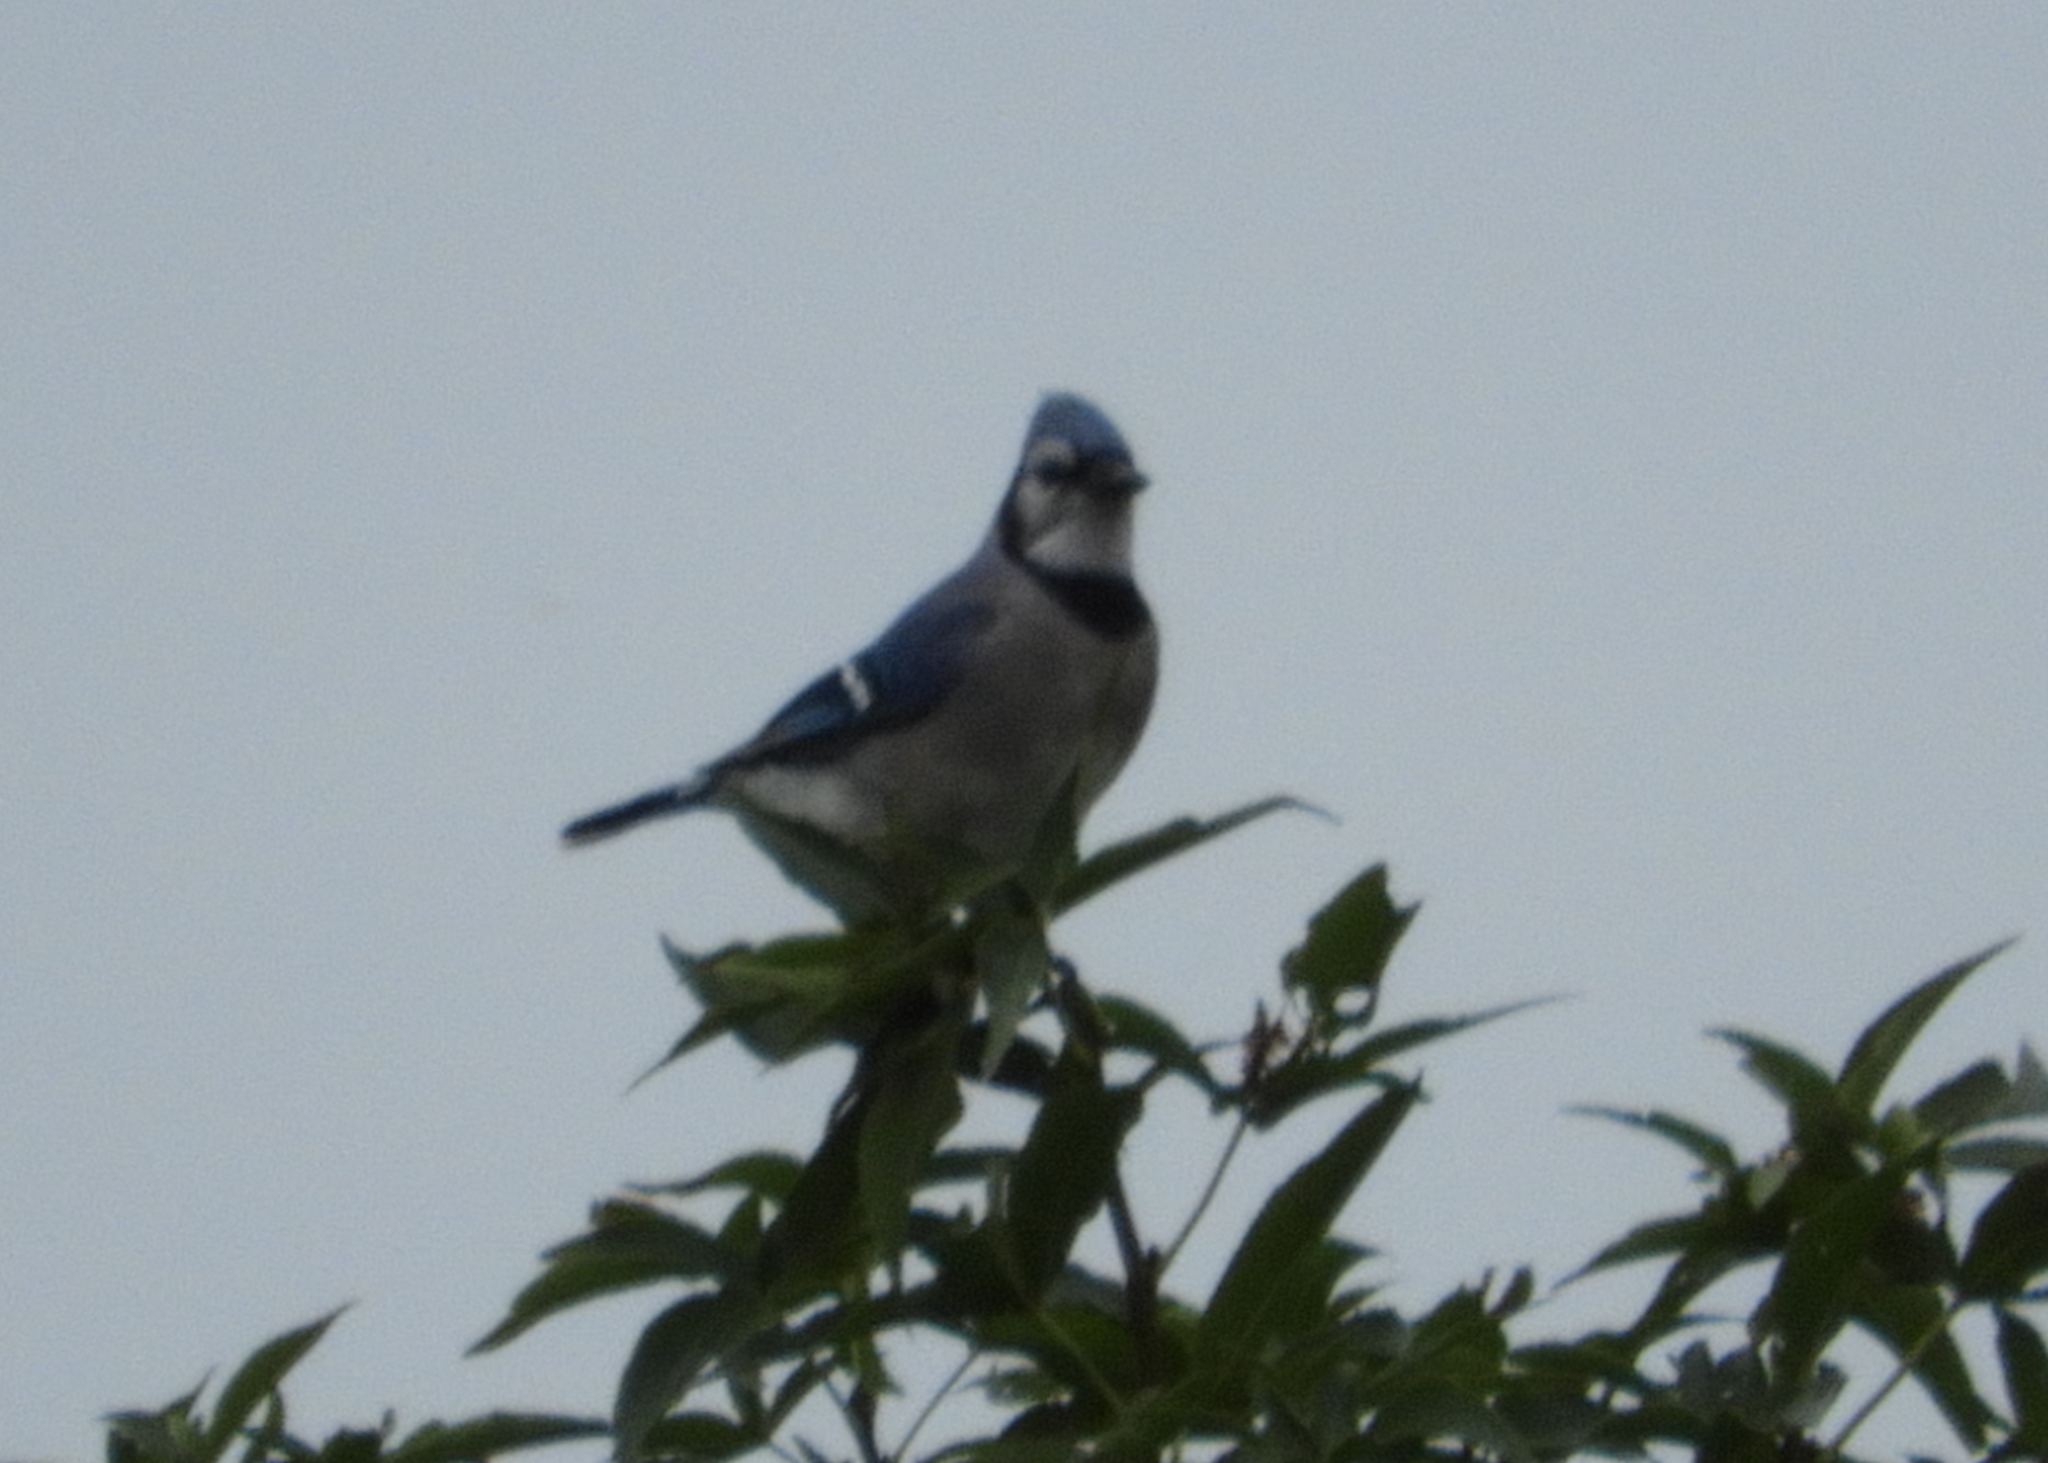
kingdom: Animalia
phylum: Chordata
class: Aves
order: Passeriformes
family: Corvidae
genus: Cyanocitta
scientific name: Cyanocitta cristata
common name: Blue jay
